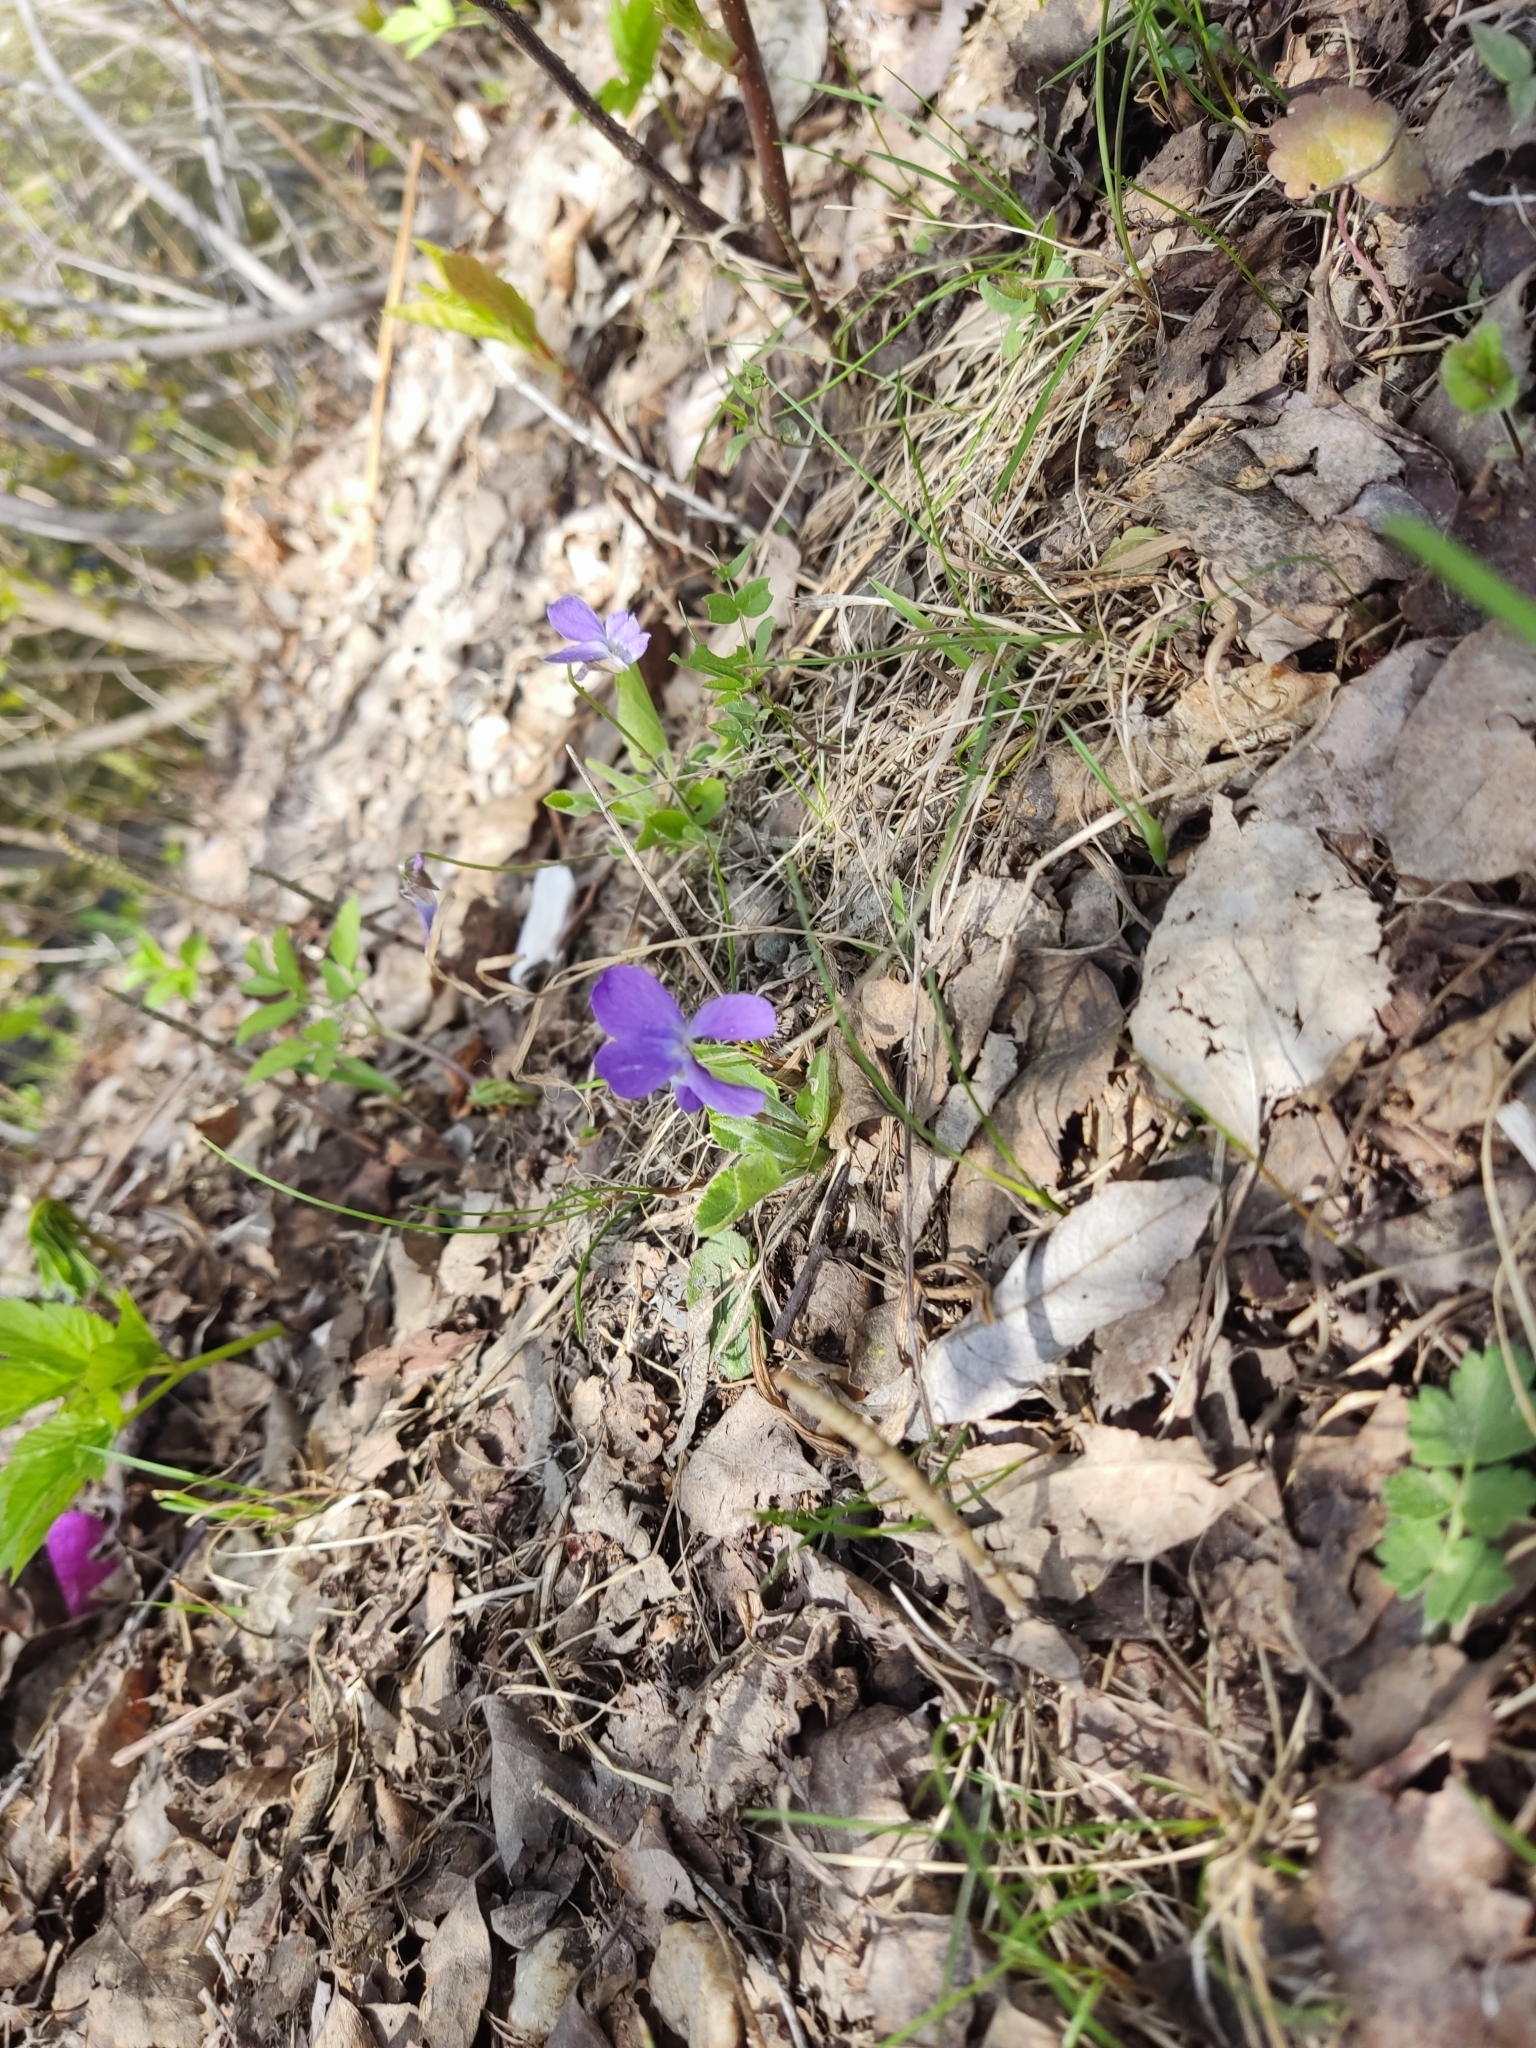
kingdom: Plantae
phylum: Tracheophyta
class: Magnoliopsida
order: Malpighiales
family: Violaceae
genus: Viola
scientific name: Viola hirta
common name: Hairy violet
